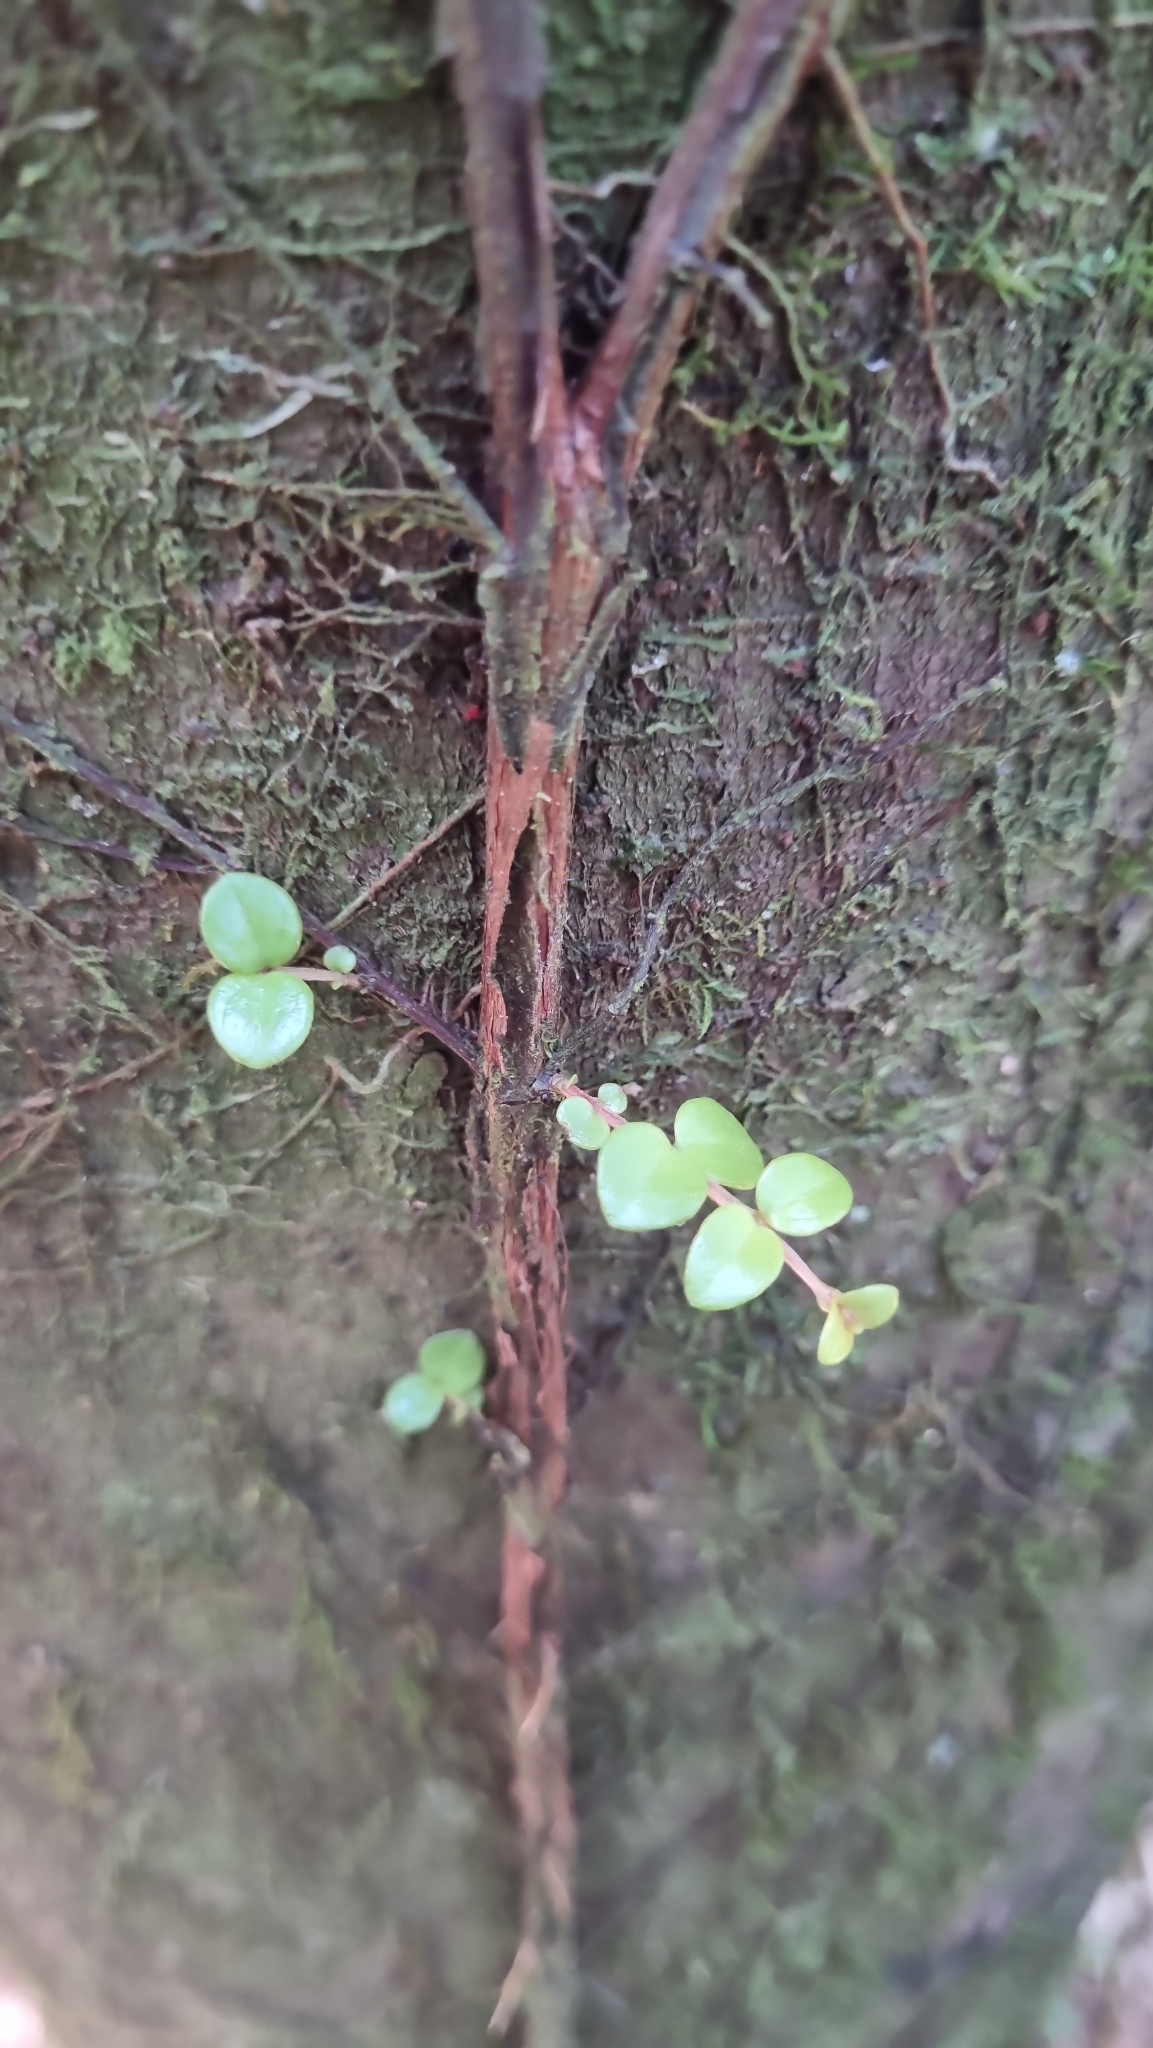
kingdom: Plantae
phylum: Tracheophyta
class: Magnoliopsida
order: Myrtales
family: Myrtaceae
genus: Metrosideros
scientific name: Metrosideros perforata
